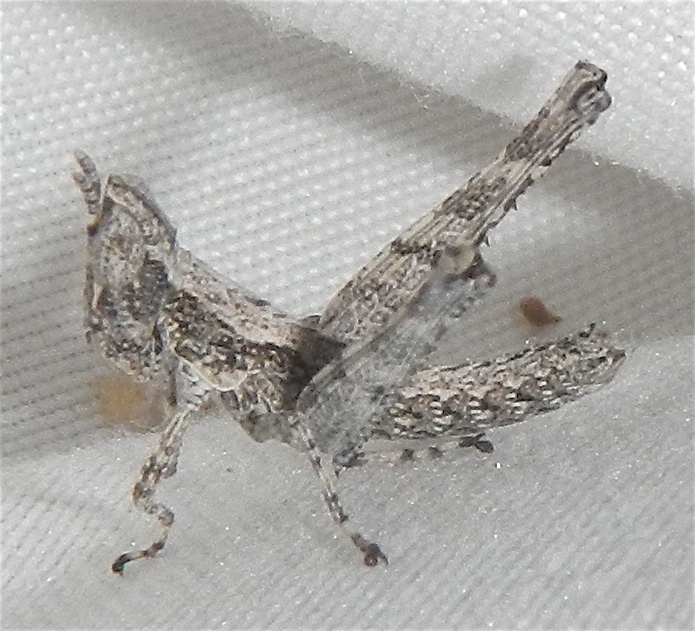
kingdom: Animalia
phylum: Arthropoda
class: Insecta
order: Orthoptera
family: Eumastacidae
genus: Morsea
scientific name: Morsea piute
